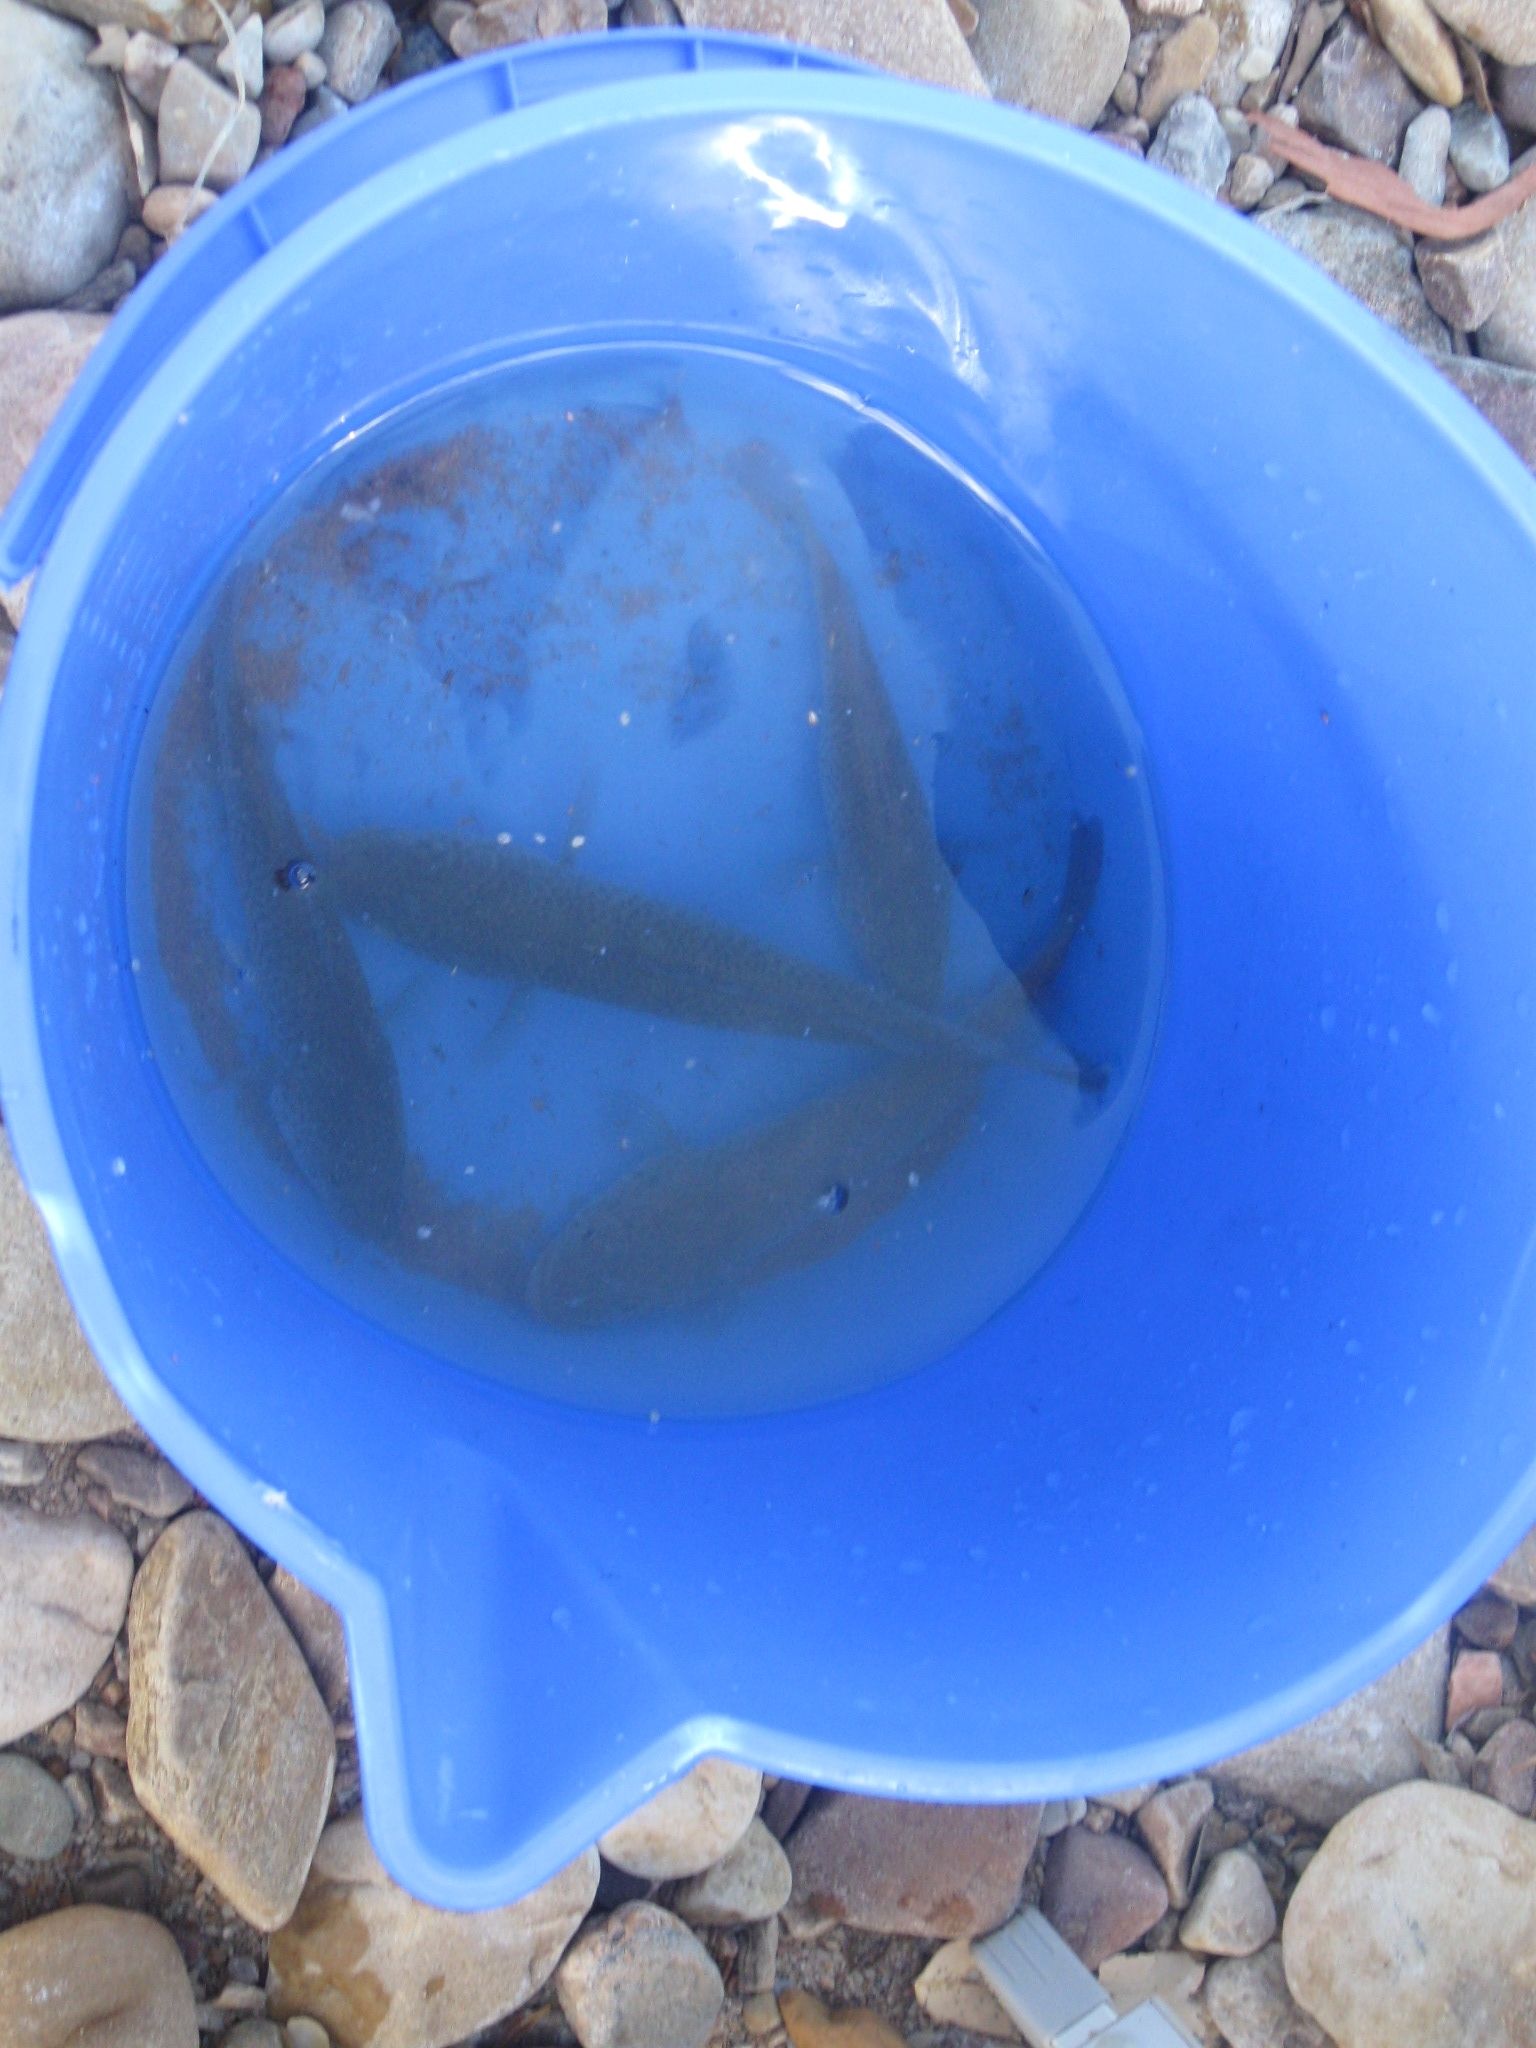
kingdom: Animalia
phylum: Chordata
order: Perciformes
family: Terapontidae
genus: Leiopotherapon
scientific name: Leiopotherapon unicolor
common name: Bobby
